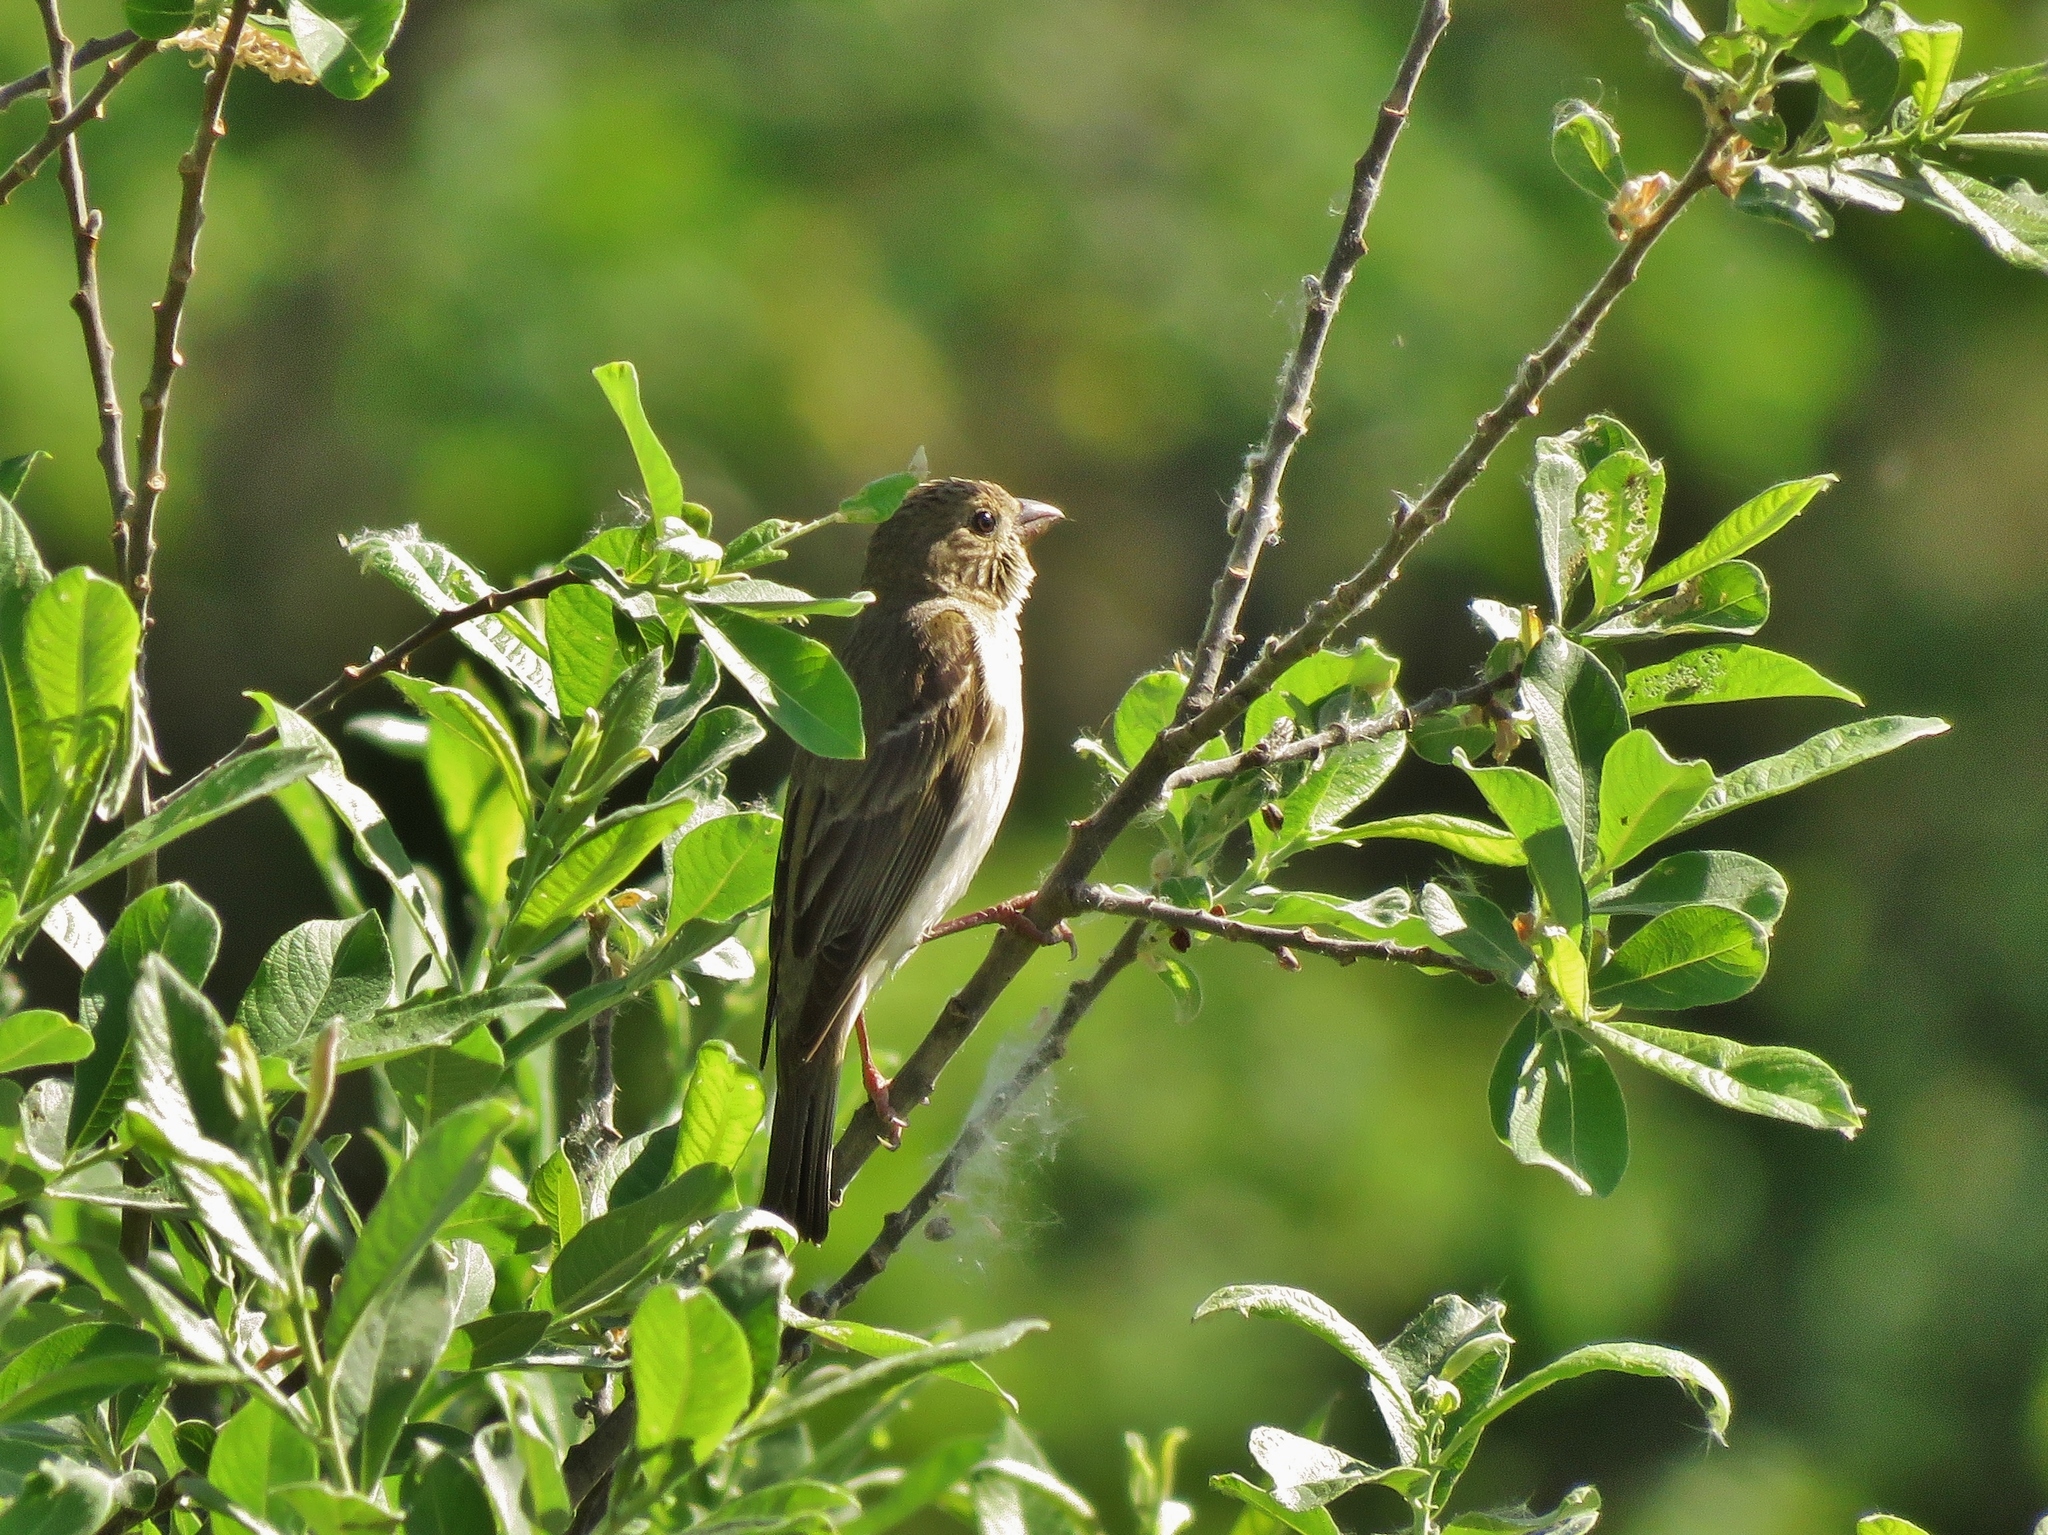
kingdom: Animalia
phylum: Chordata
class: Aves
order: Passeriformes
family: Fringillidae
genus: Carpodacus
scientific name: Carpodacus erythrinus
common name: Common rosefinch
